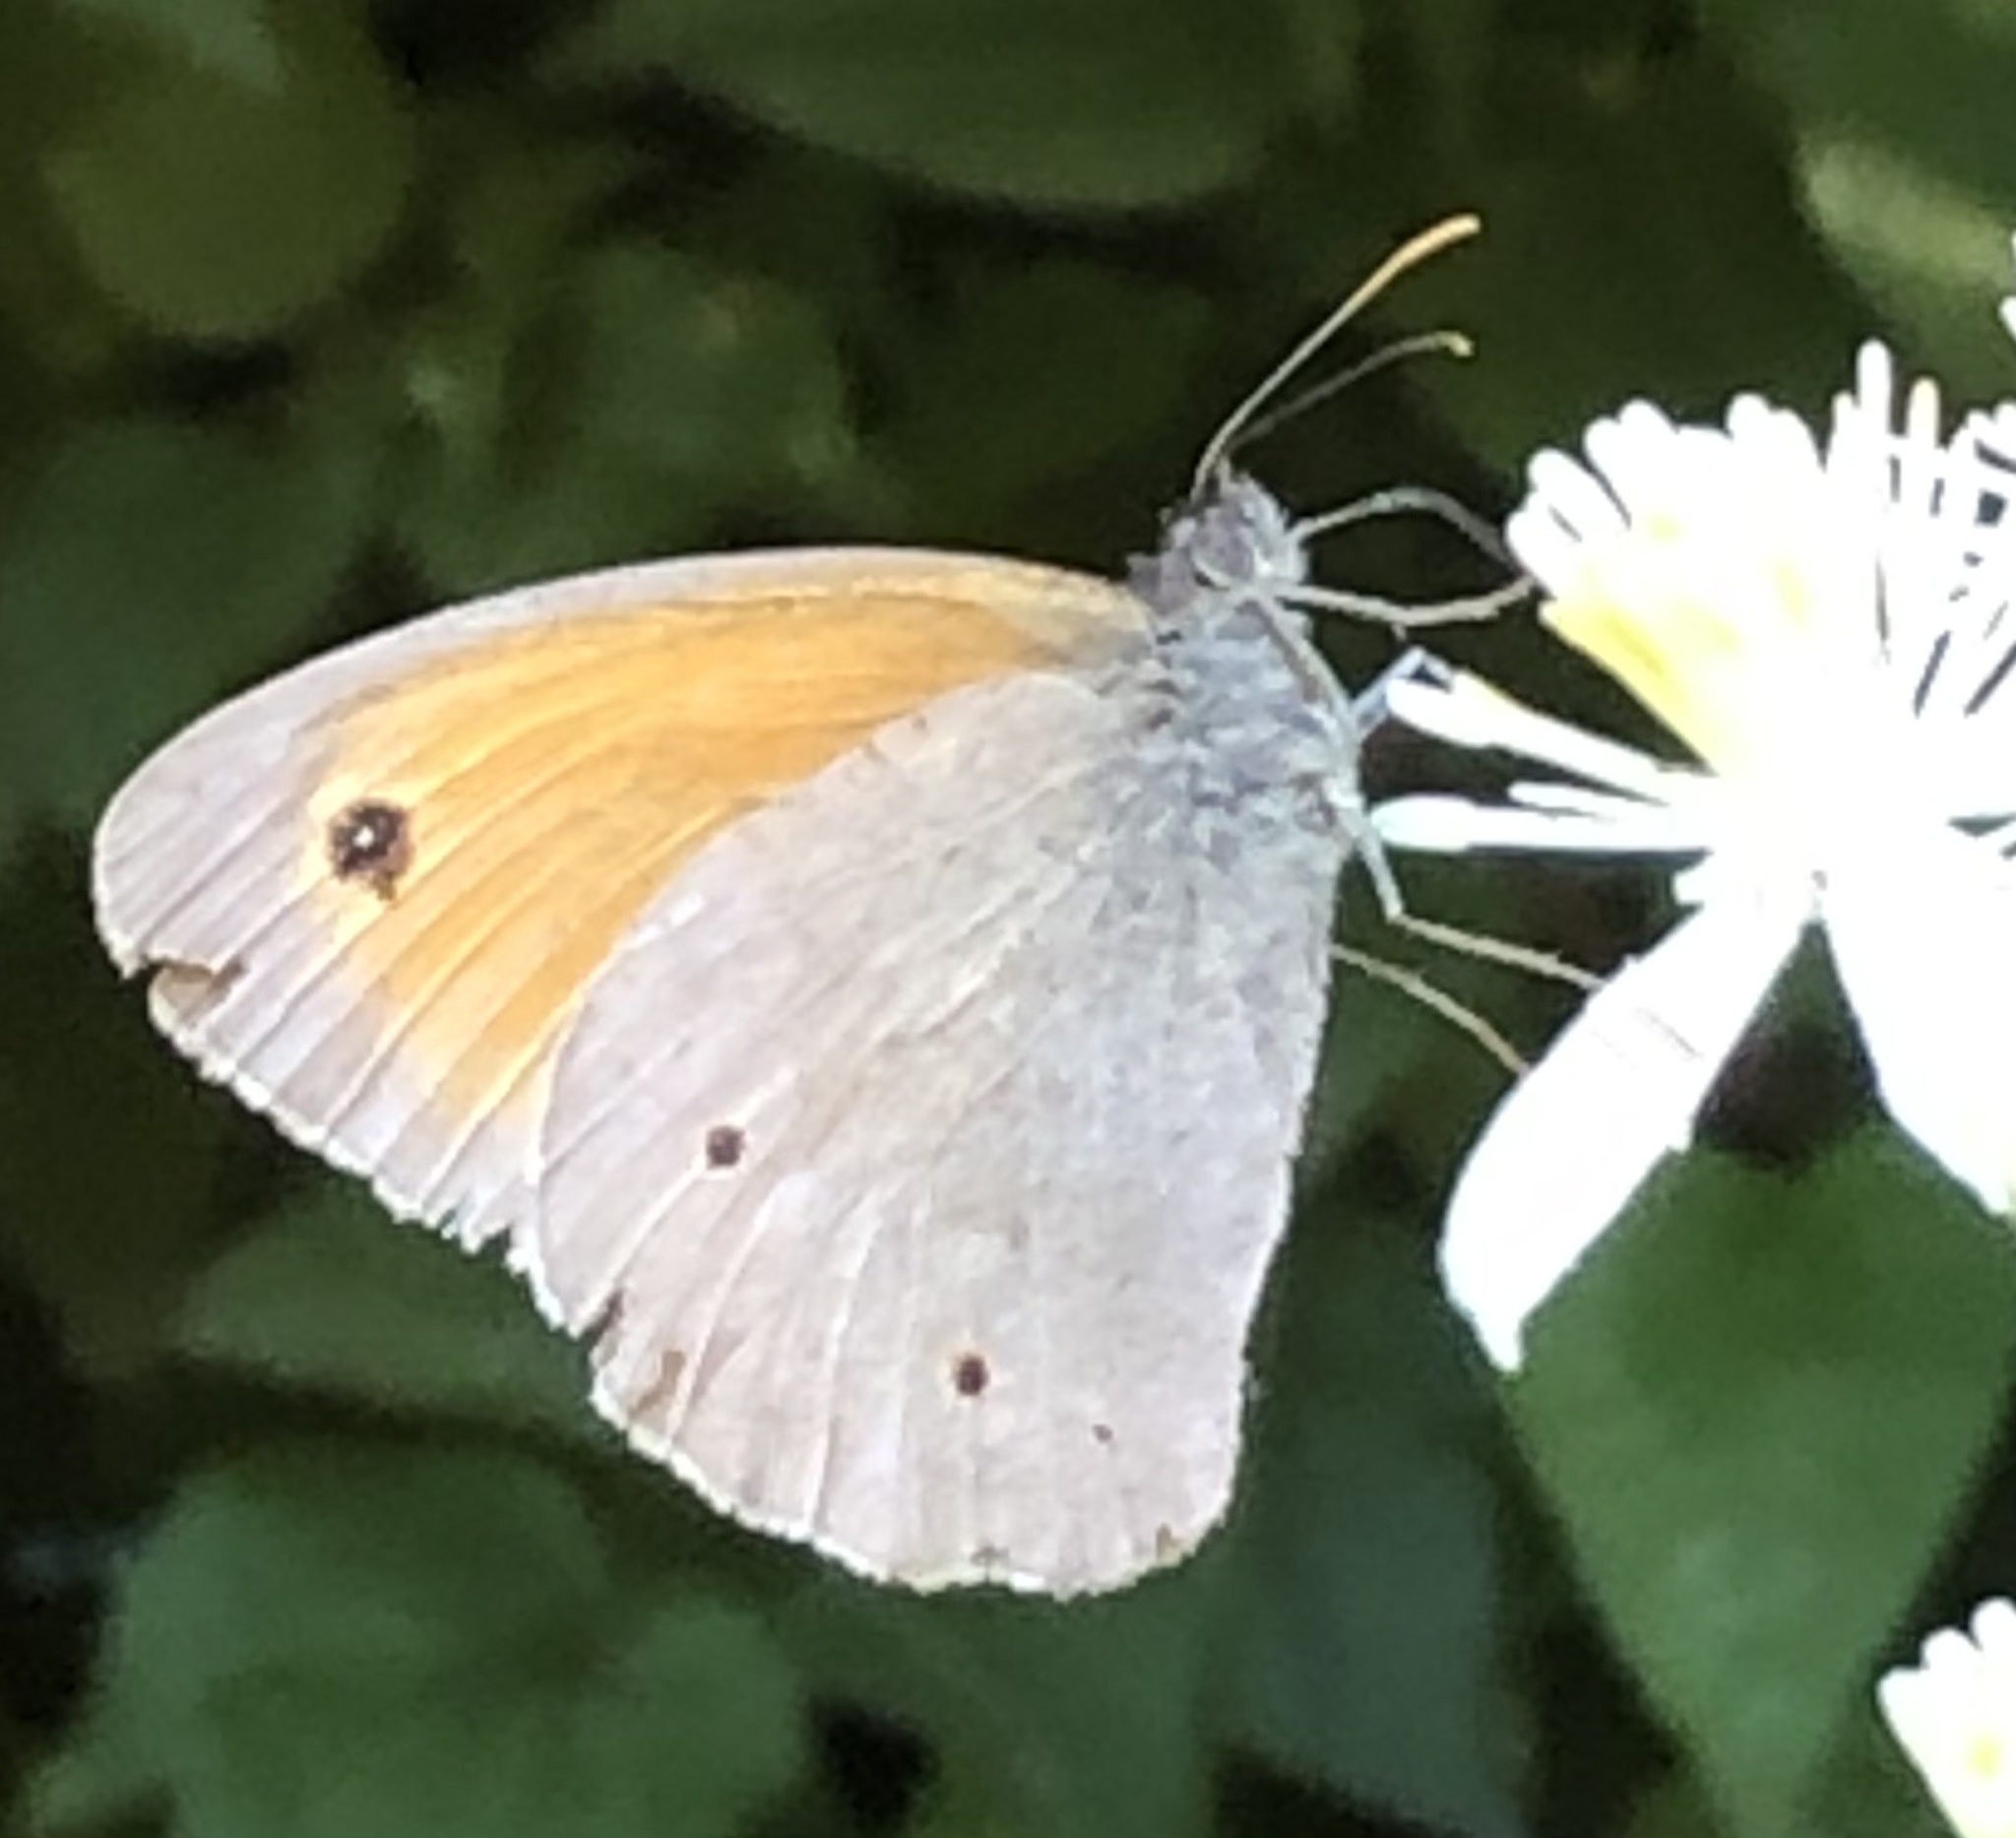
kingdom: Animalia
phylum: Arthropoda
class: Insecta
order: Lepidoptera
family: Nymphalidae
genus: Maniola
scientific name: Maniola jurtina
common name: Meadow brown
